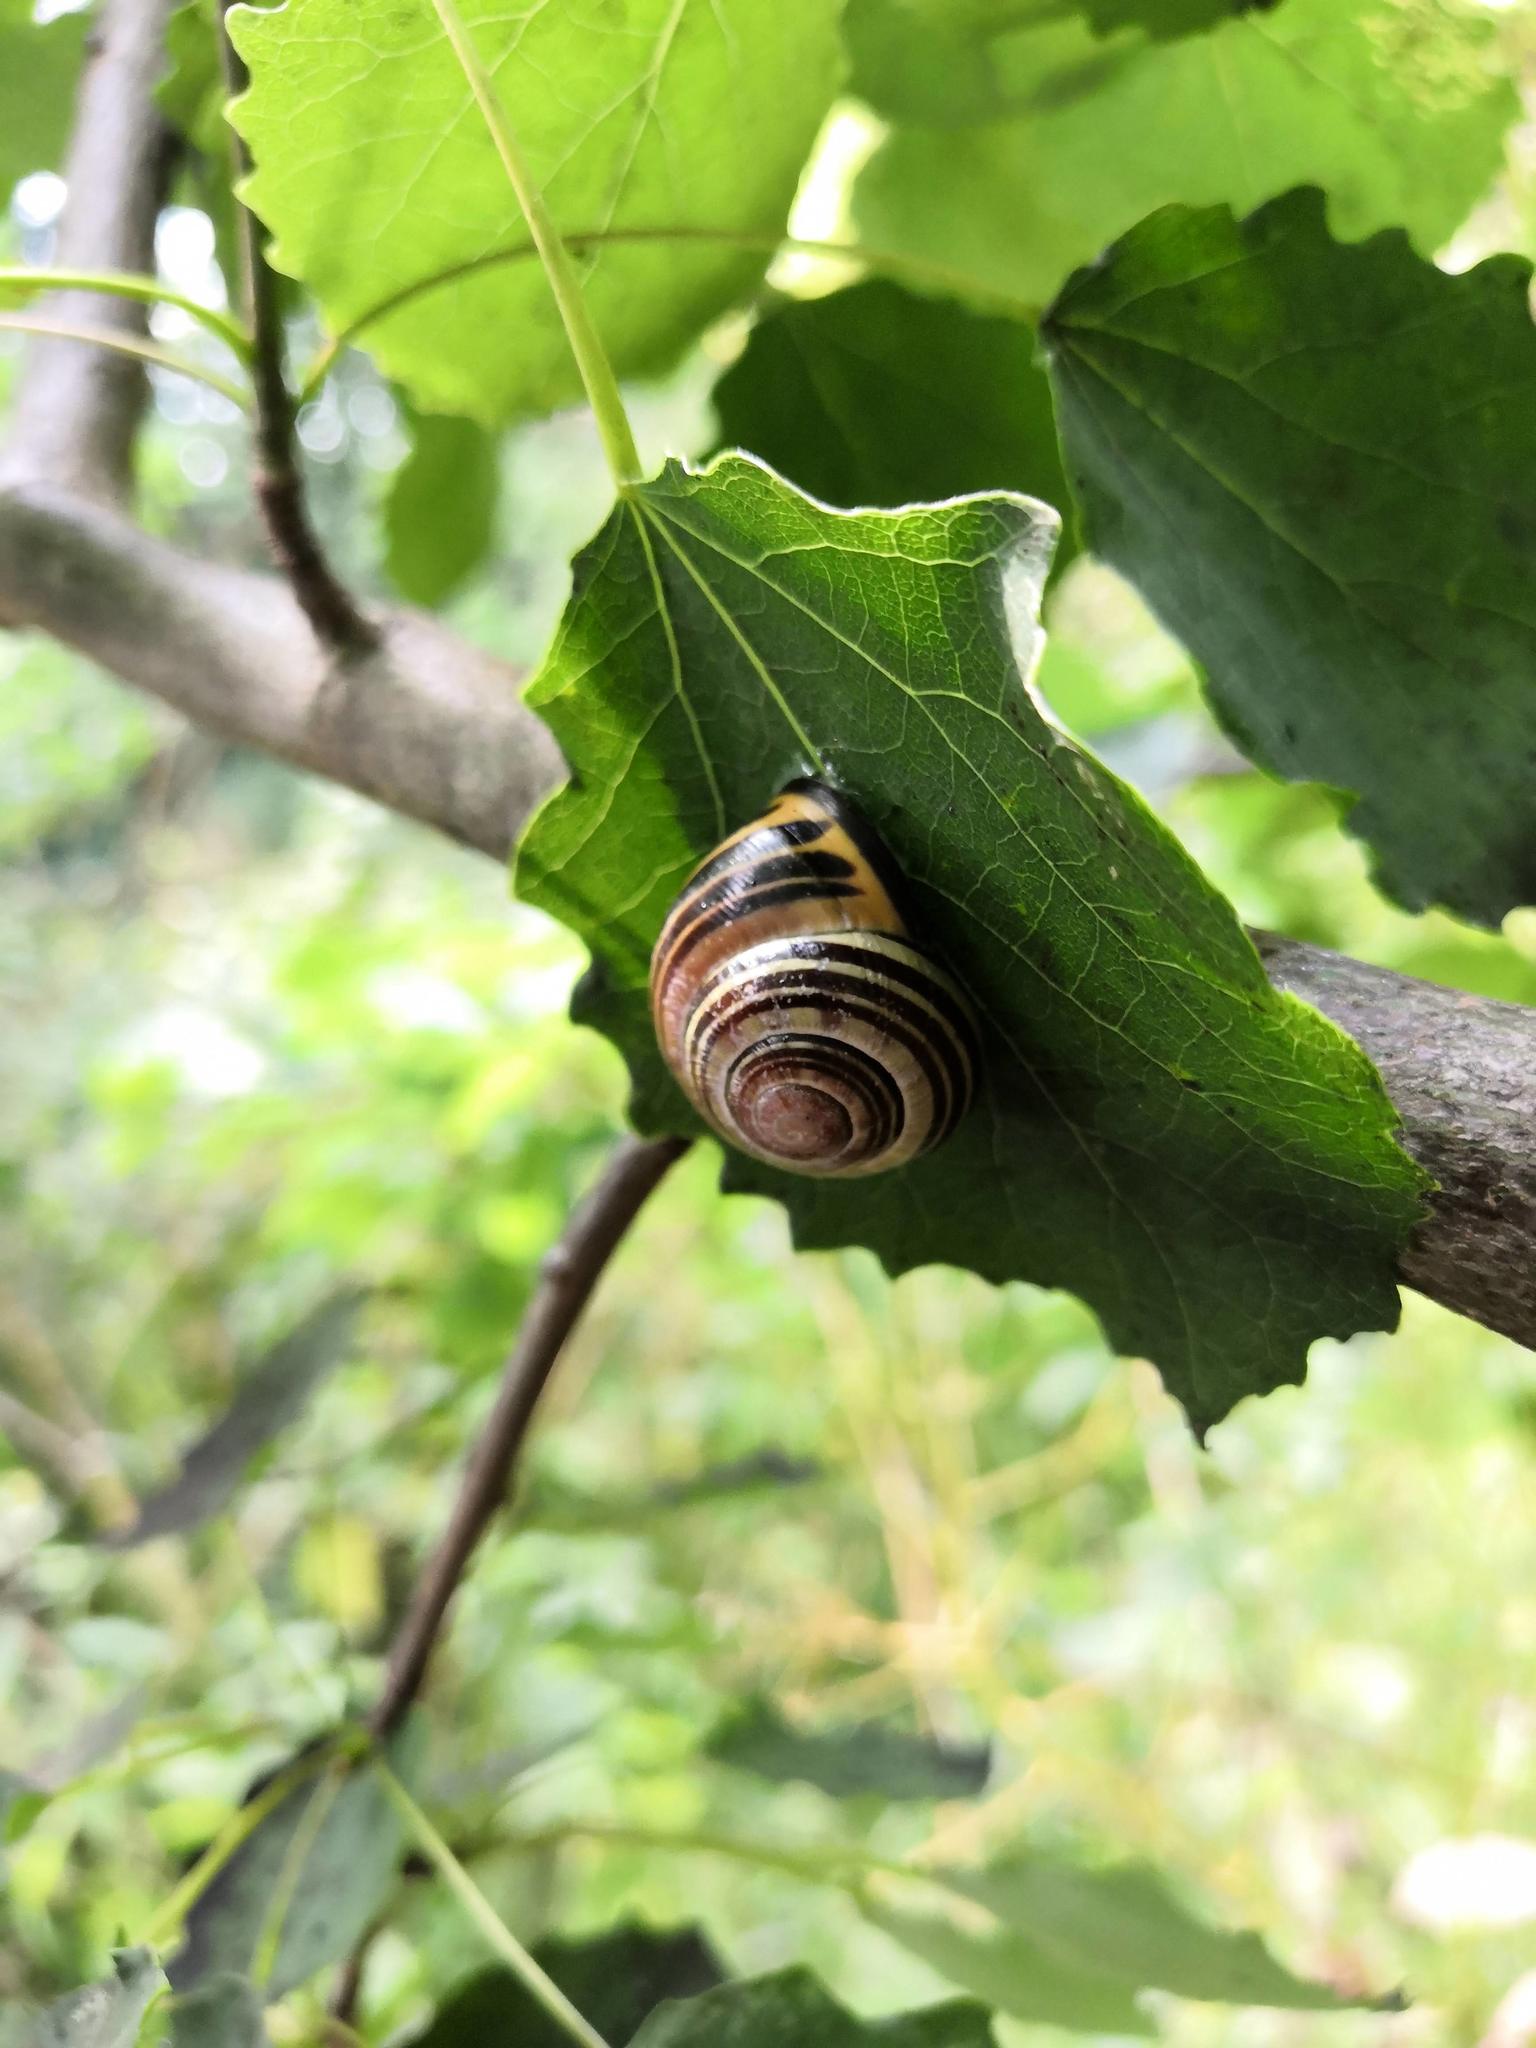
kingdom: Animalia
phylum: Mollusca
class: Gastropoda
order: Stylommatophora
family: Helicidae
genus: Cepaea
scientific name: Cepaea nemoralis
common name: Grovesnail
